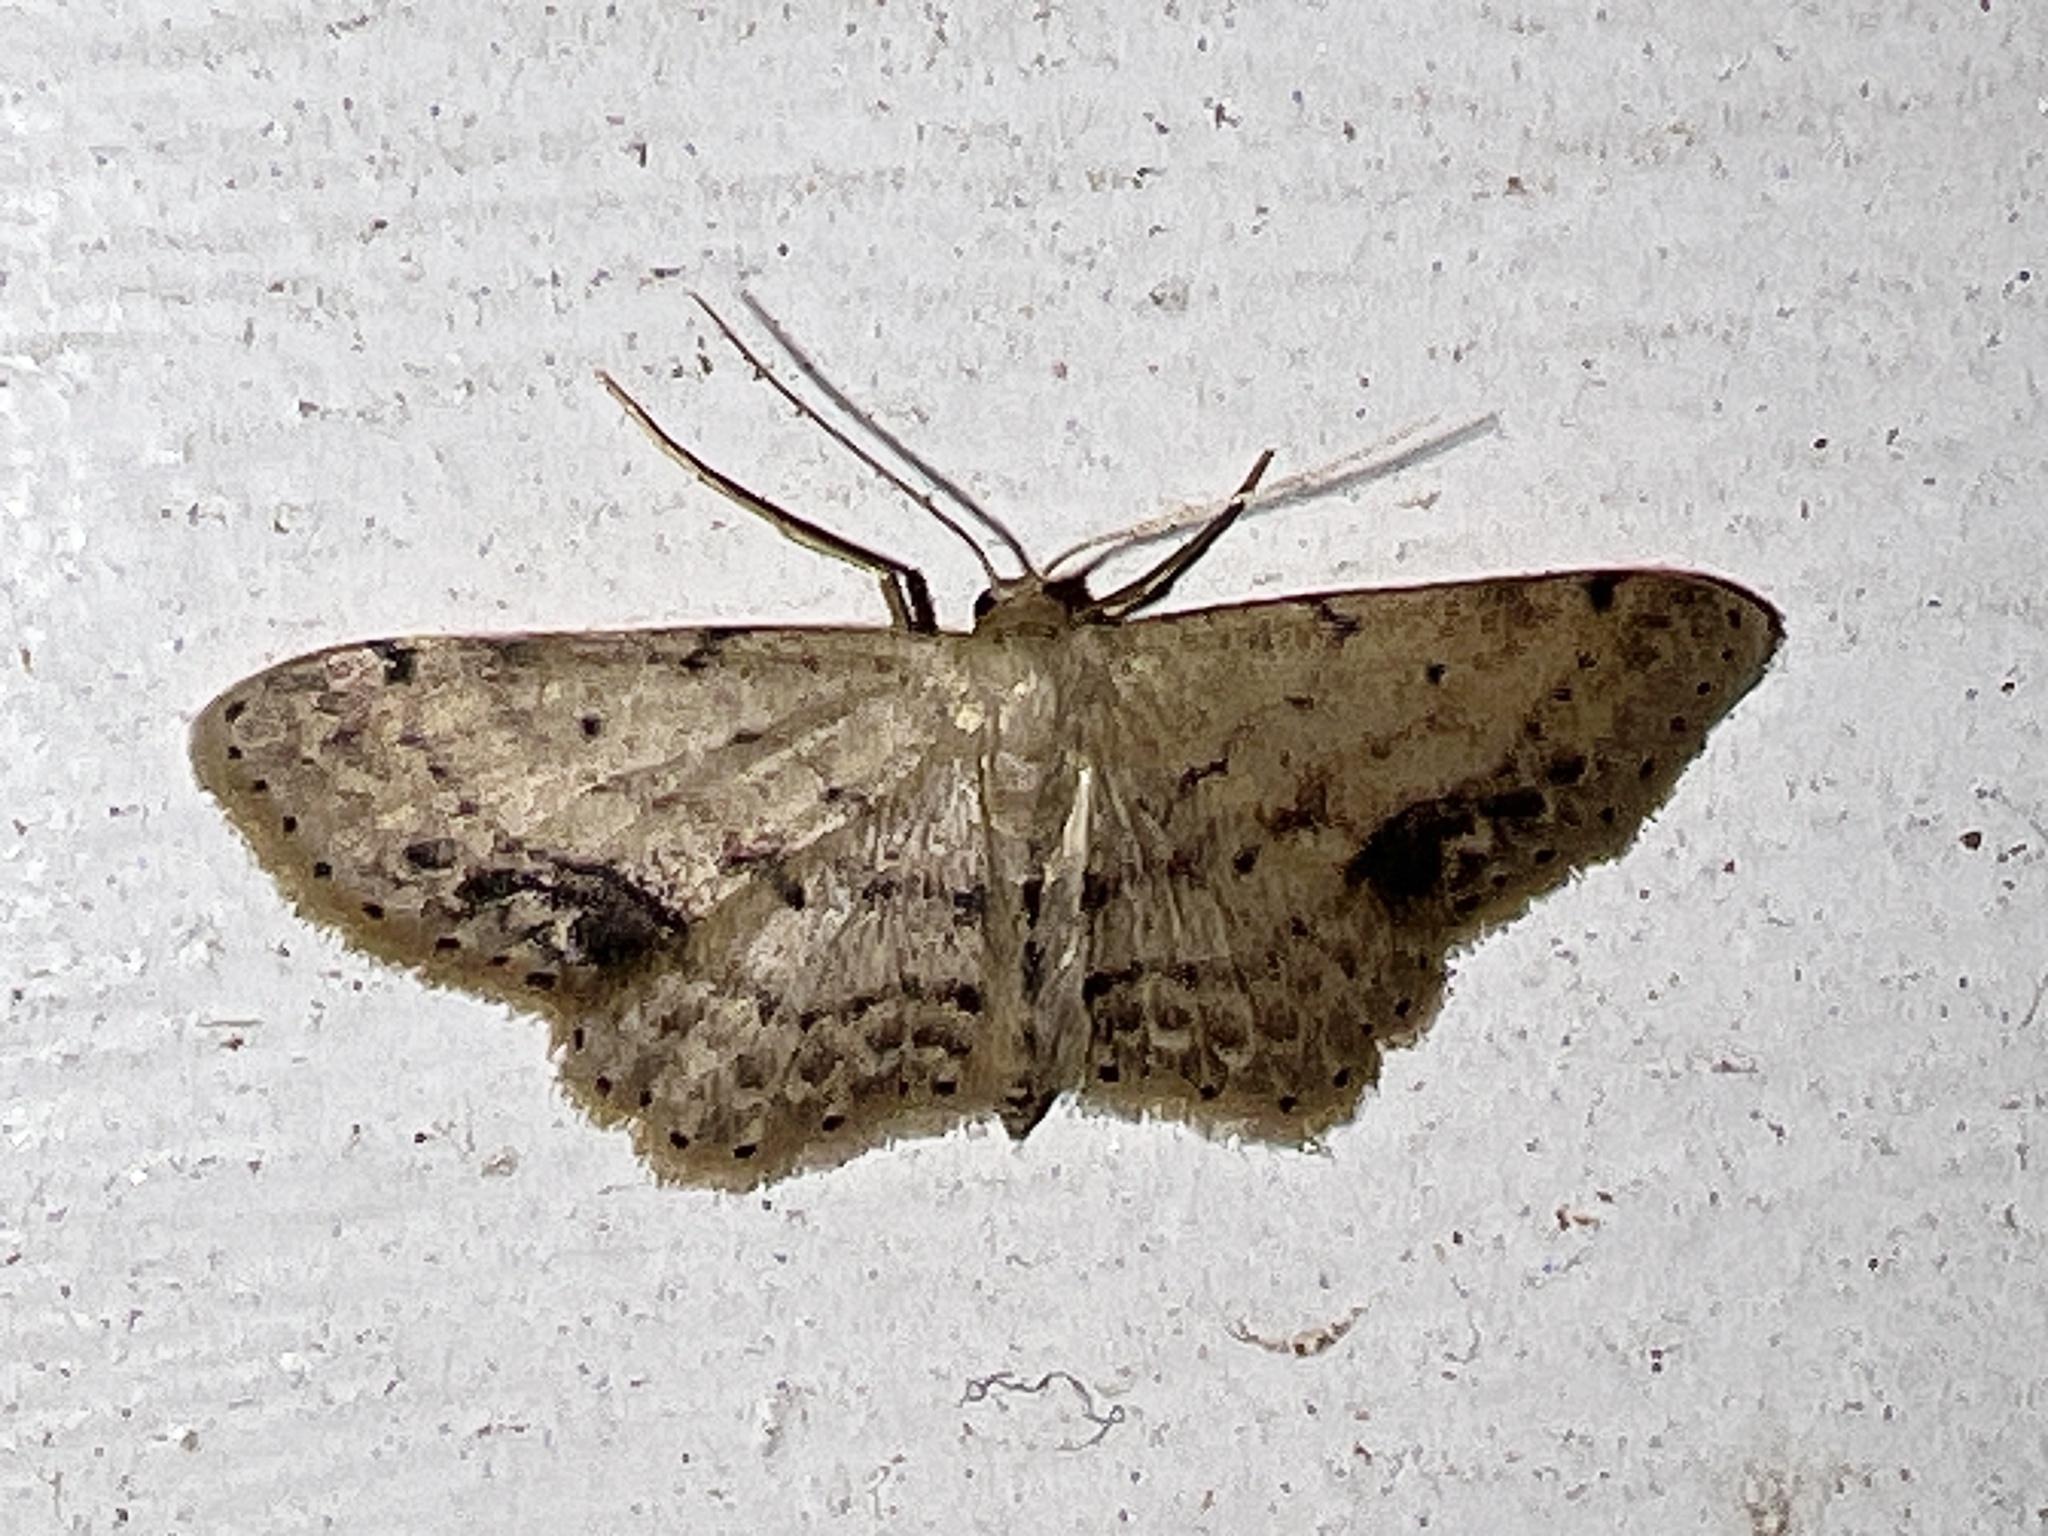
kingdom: Animalia
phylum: Arthropoda
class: Insecta
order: Lepidoptera
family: Geometridae
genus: Idaea
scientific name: Idaea dimidiata
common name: Single-dotted wave
